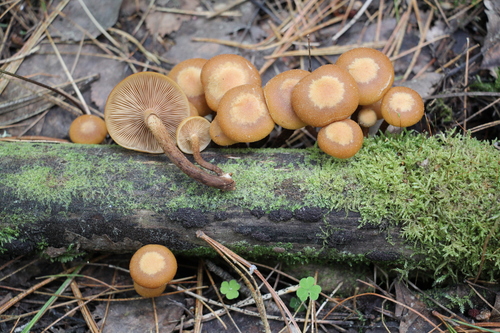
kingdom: Fungi
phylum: Basidiomycota
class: Agaricomycetes
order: Agaricales
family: Strophariaceae
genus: Kuehneromyces
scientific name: Kuehneromyces mutabilis
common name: Sheathed woodtuft
